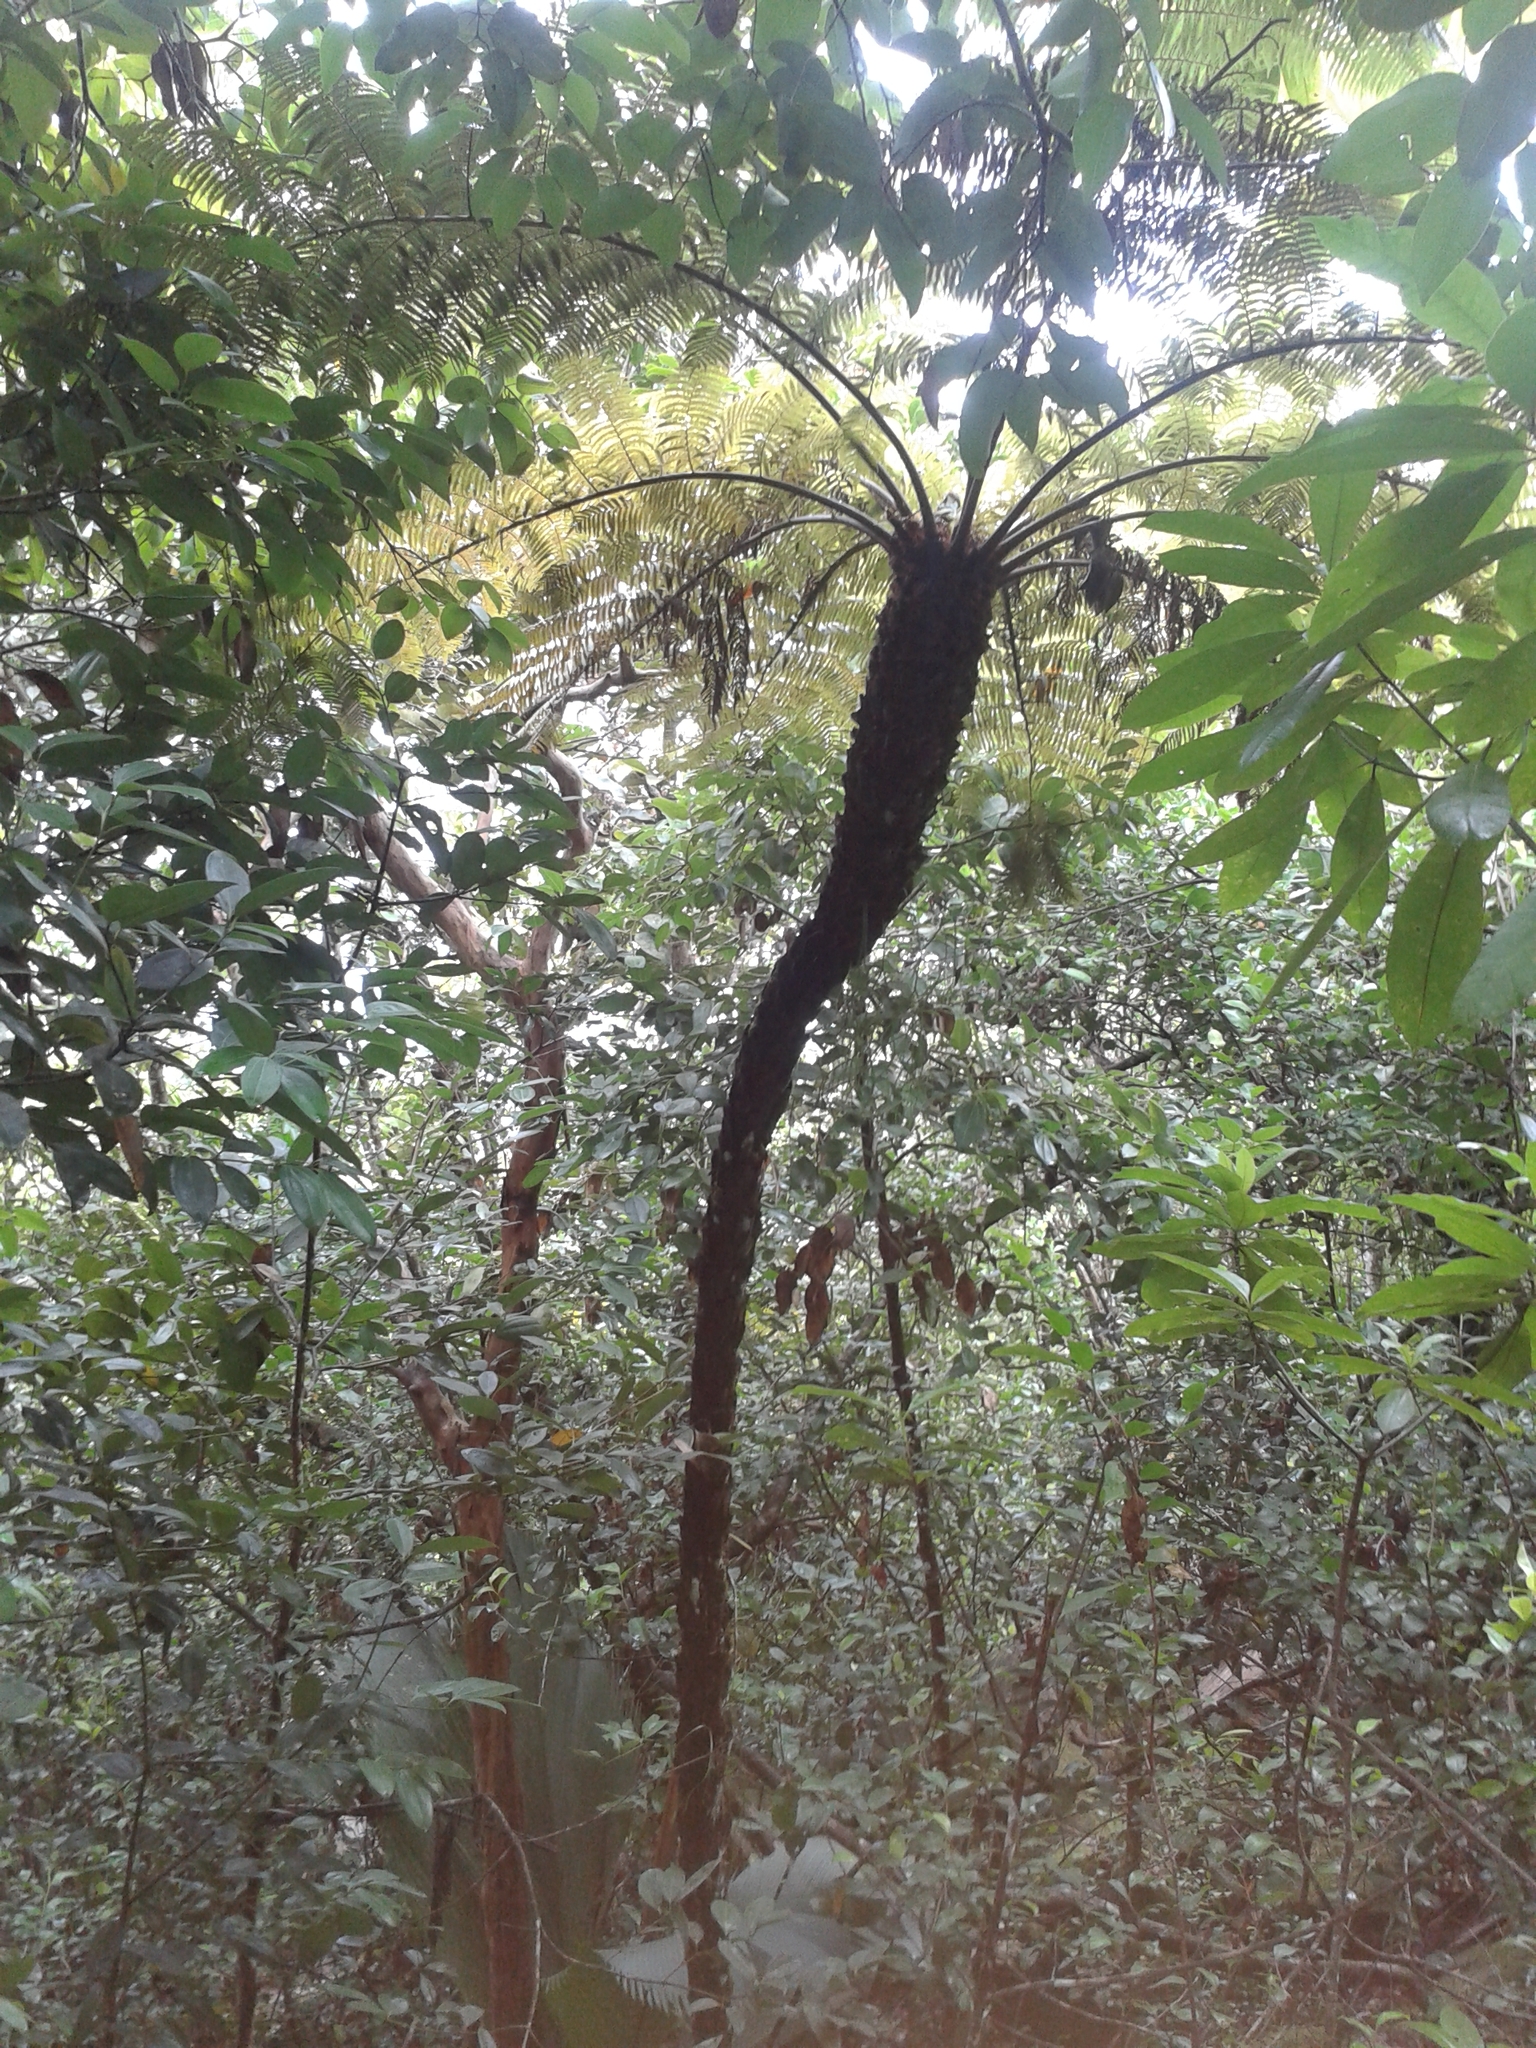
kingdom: Plantae
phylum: Tracheophyta
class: Polypodiopsida
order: Cyatheales
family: Cyatheaceae
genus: Alsophila
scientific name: Alsophila sechellarum
